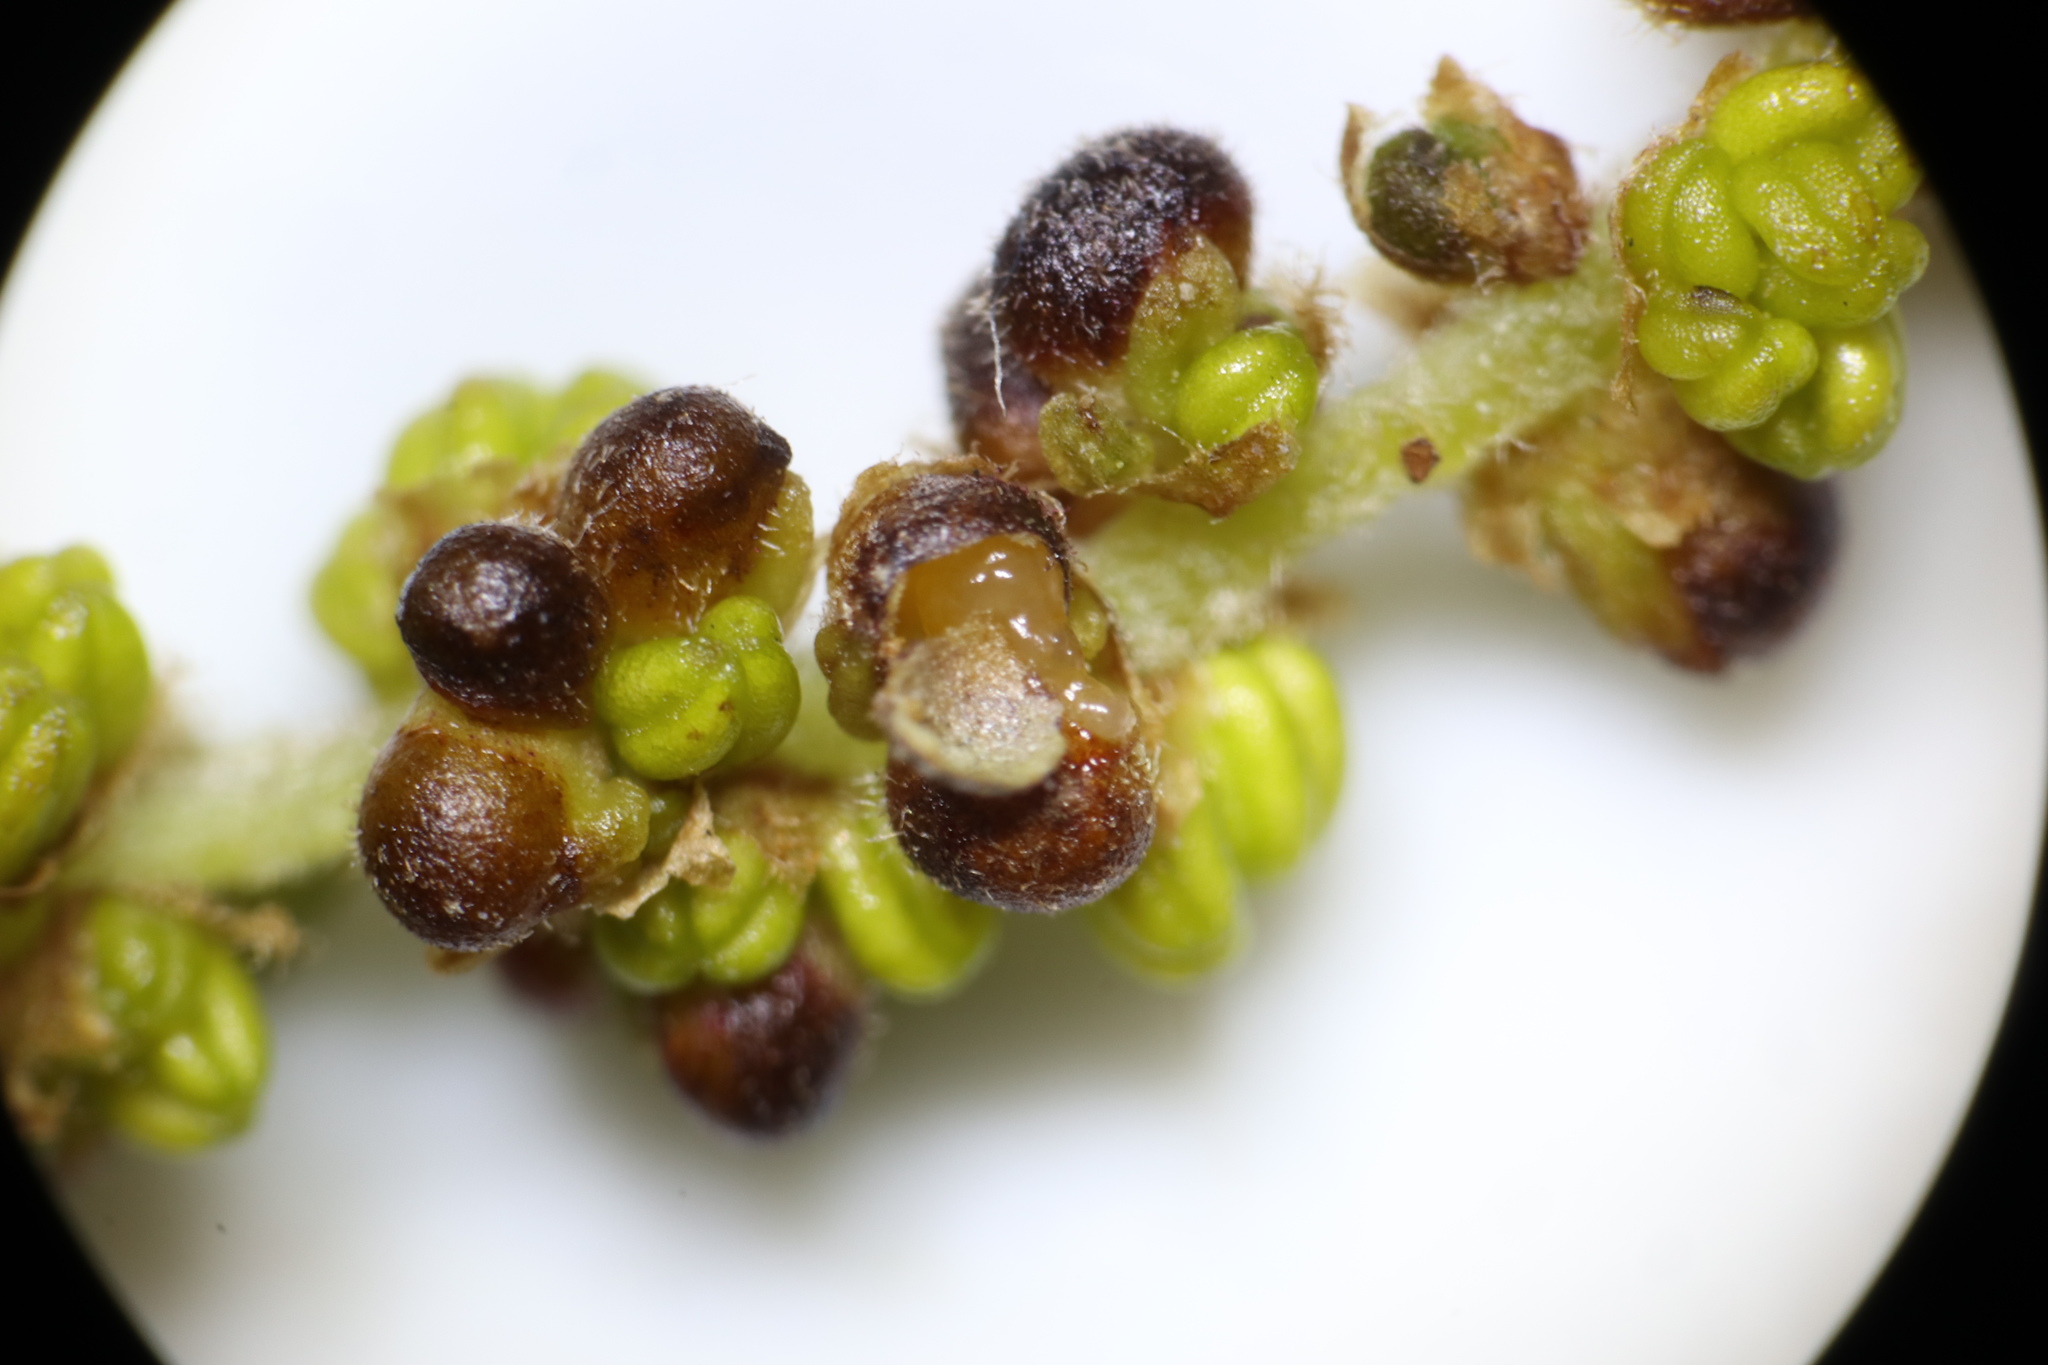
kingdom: Animalia
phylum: Arthropoda
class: Insecta
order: Hymenoptera
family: Cynipidae
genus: Callirhytis
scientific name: Callirhytis
